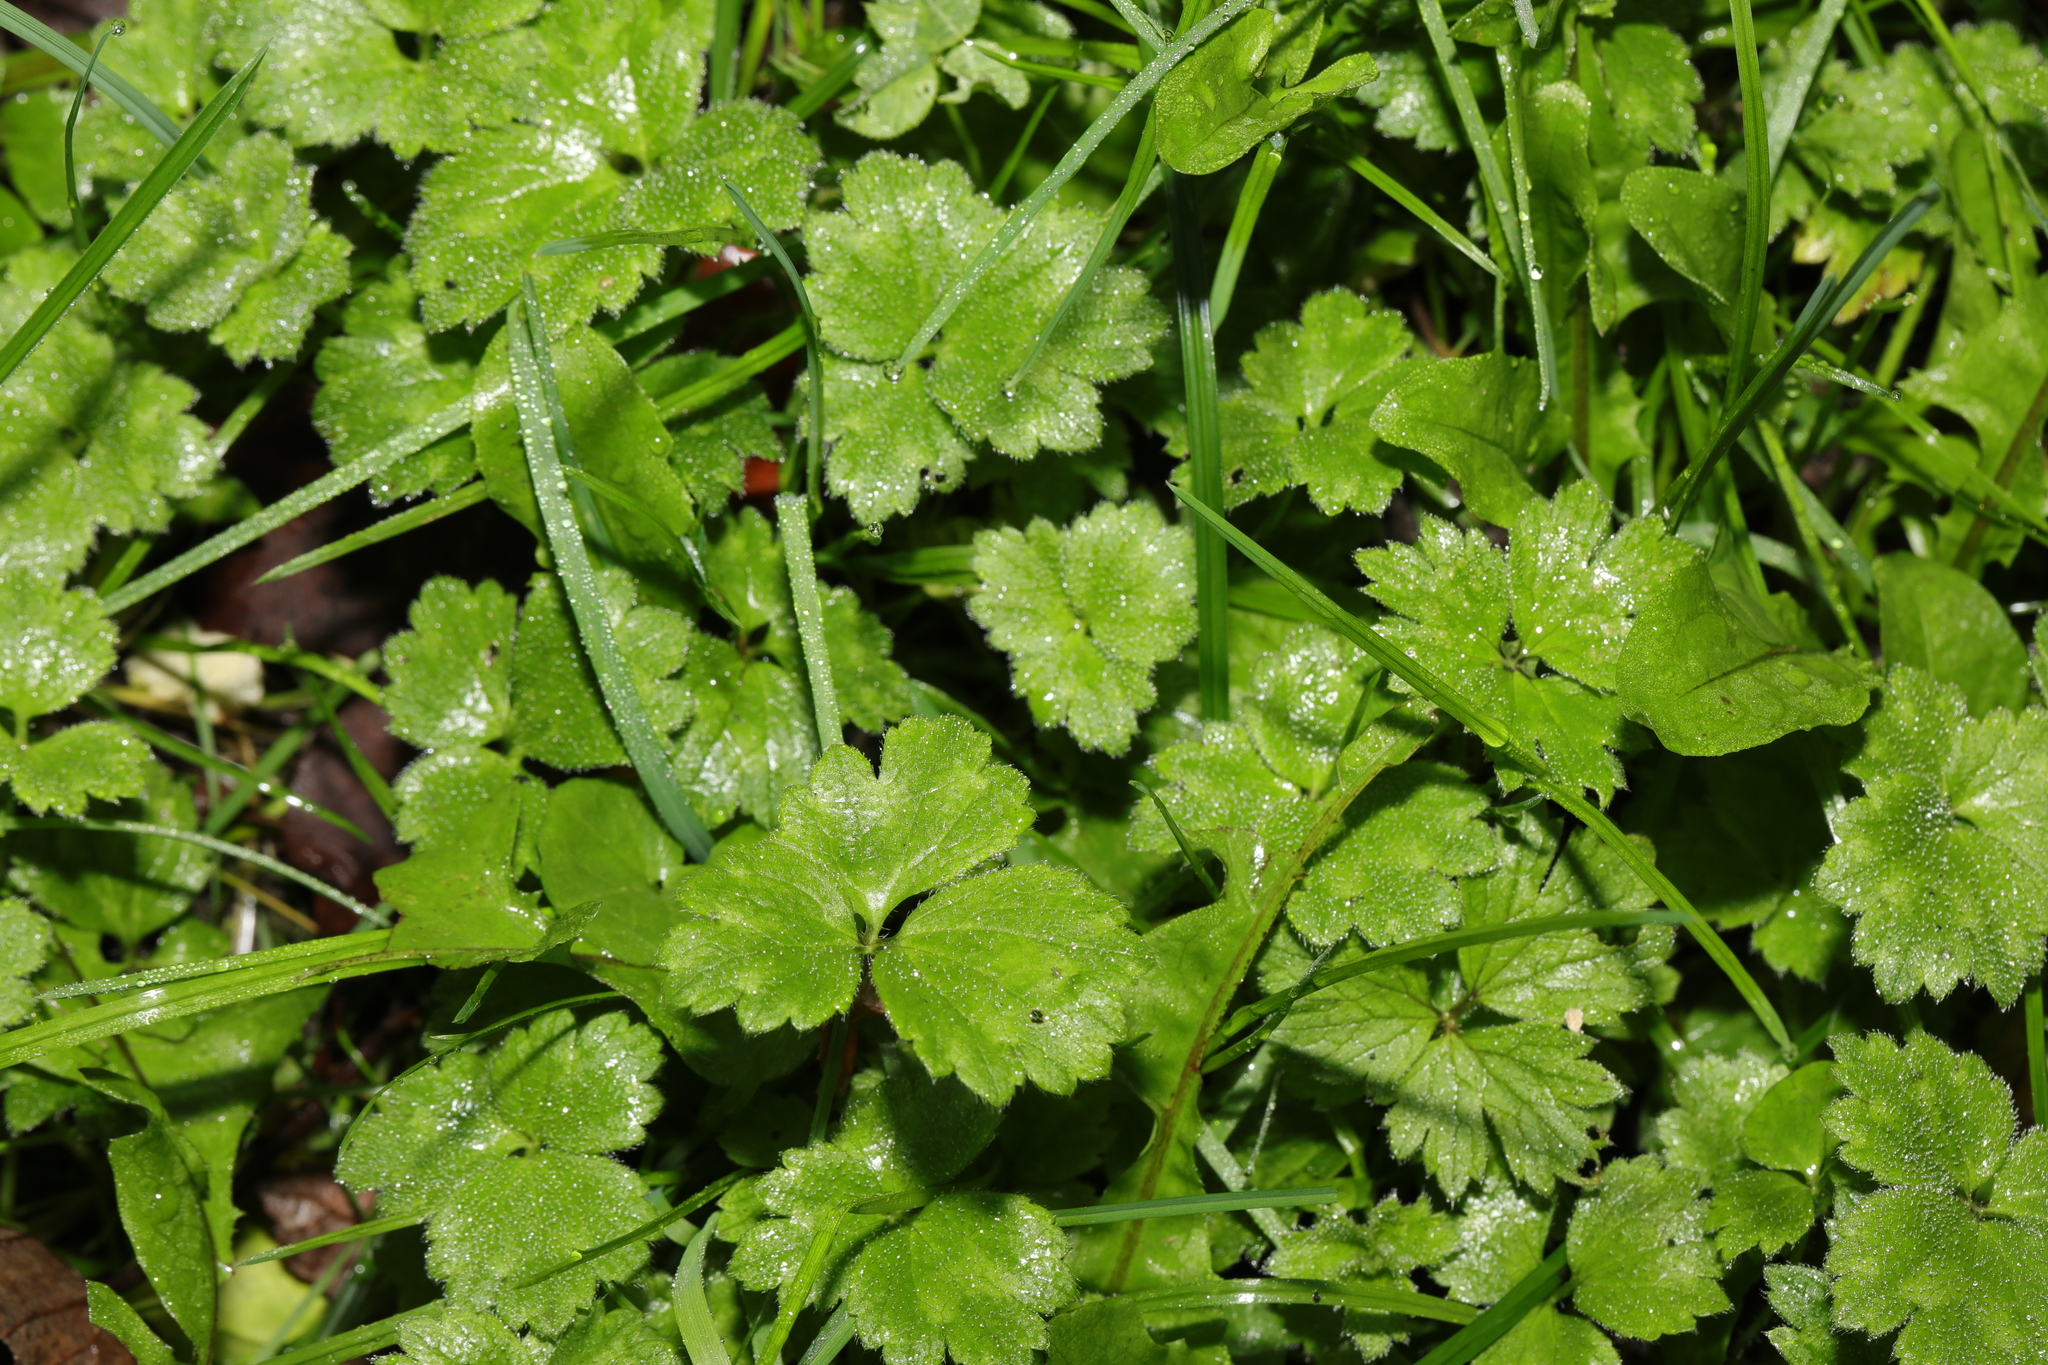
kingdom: Plantae
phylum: Tracheophyta
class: Magnoliopsida
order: Ranunculales
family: Ranunculaceae
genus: Ranunculus
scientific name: Ranunculus repens
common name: Creeping buttercup
